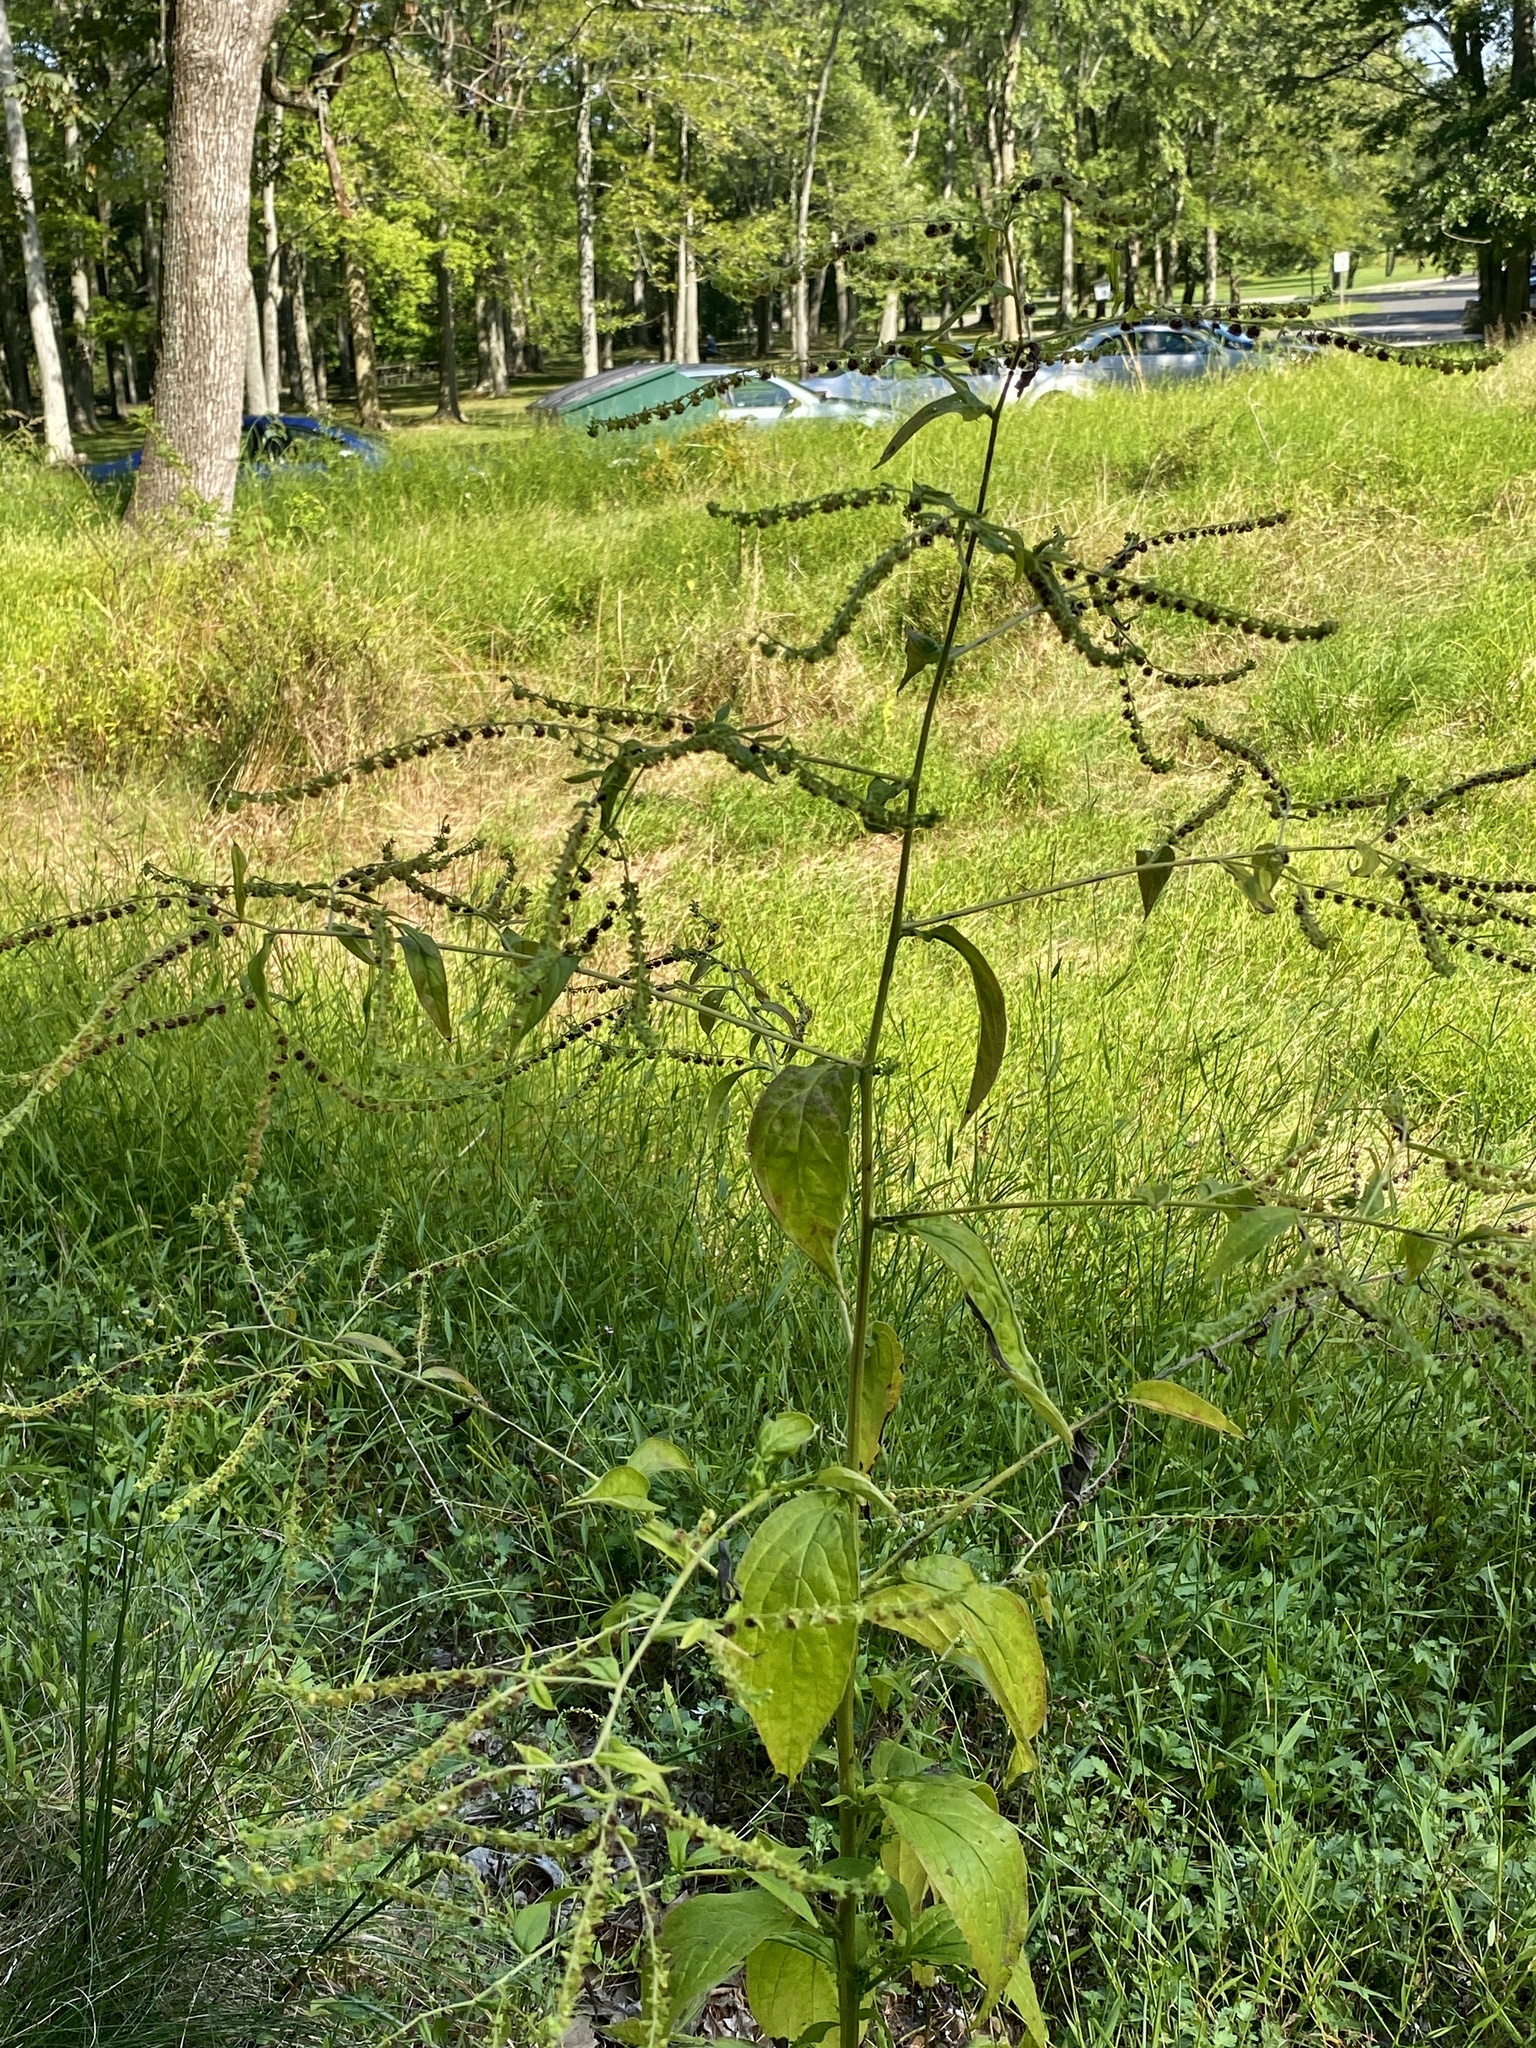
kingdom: Plantae
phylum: Tracheophyta
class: Magnoliopsida
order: Boraginales
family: Boraginaceae
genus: Hackelia
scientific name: Hackelia virginiana
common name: Beggar's-lice
